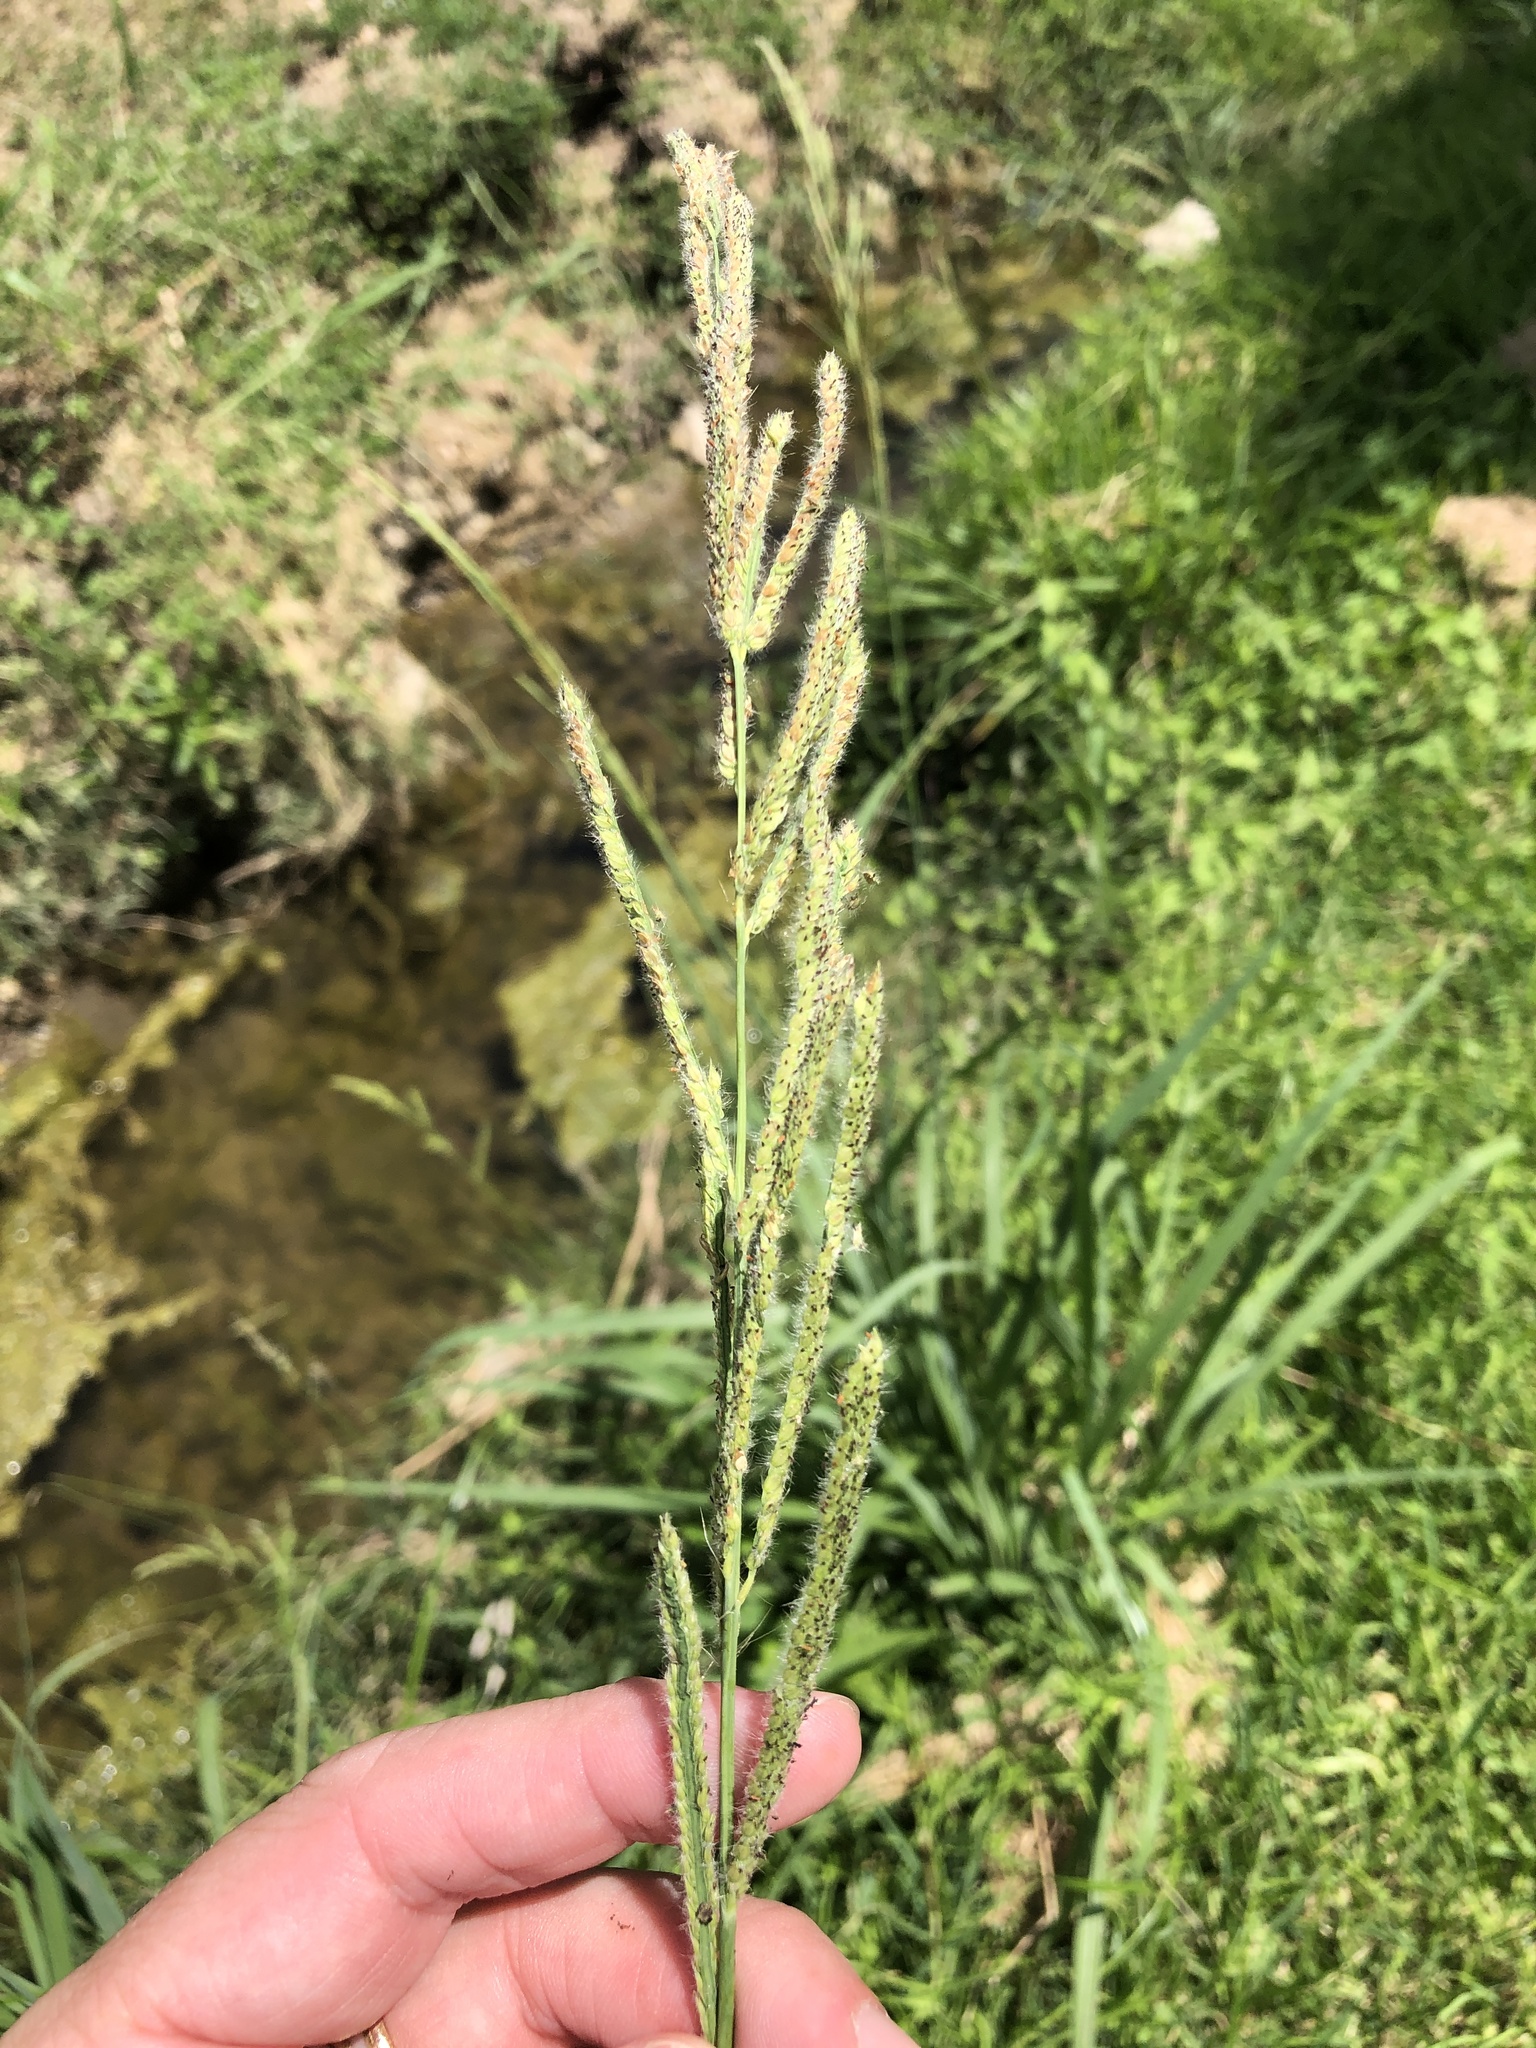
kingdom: Plantae
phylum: Tracheophyta
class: Liliopsida
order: Poales
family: Poaceae
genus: Paspalum
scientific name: Paspalum urvillei
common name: Vasey's grass
